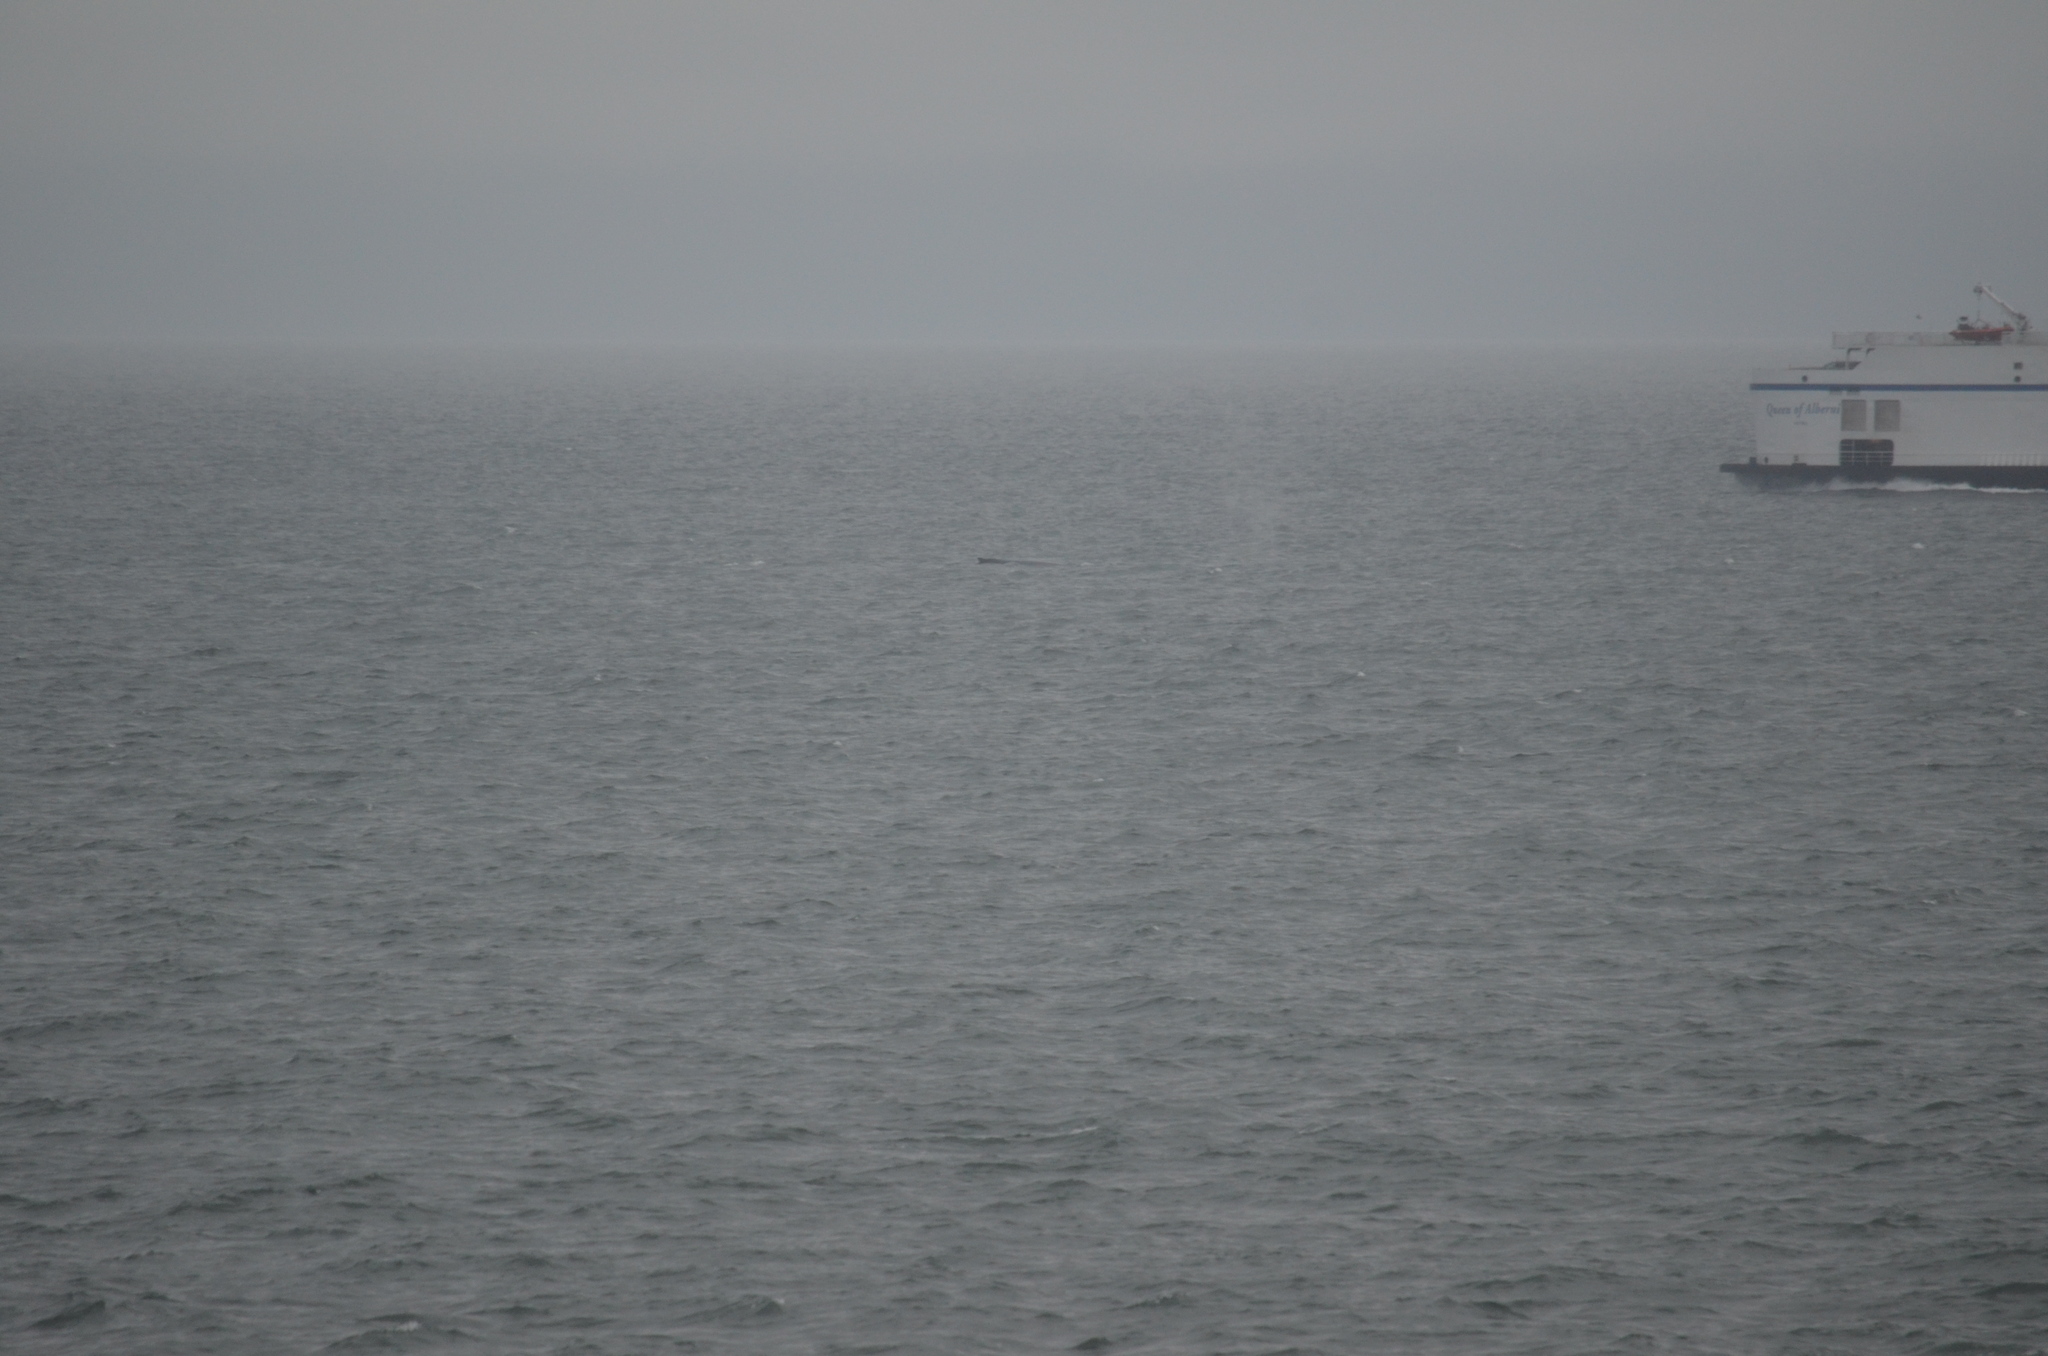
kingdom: Animalia
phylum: Chordata
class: Mammalia
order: Cetacea
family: Balaenopteridae
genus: Megaptera
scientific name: Megaptera novaeangliae
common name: Humpback whale
